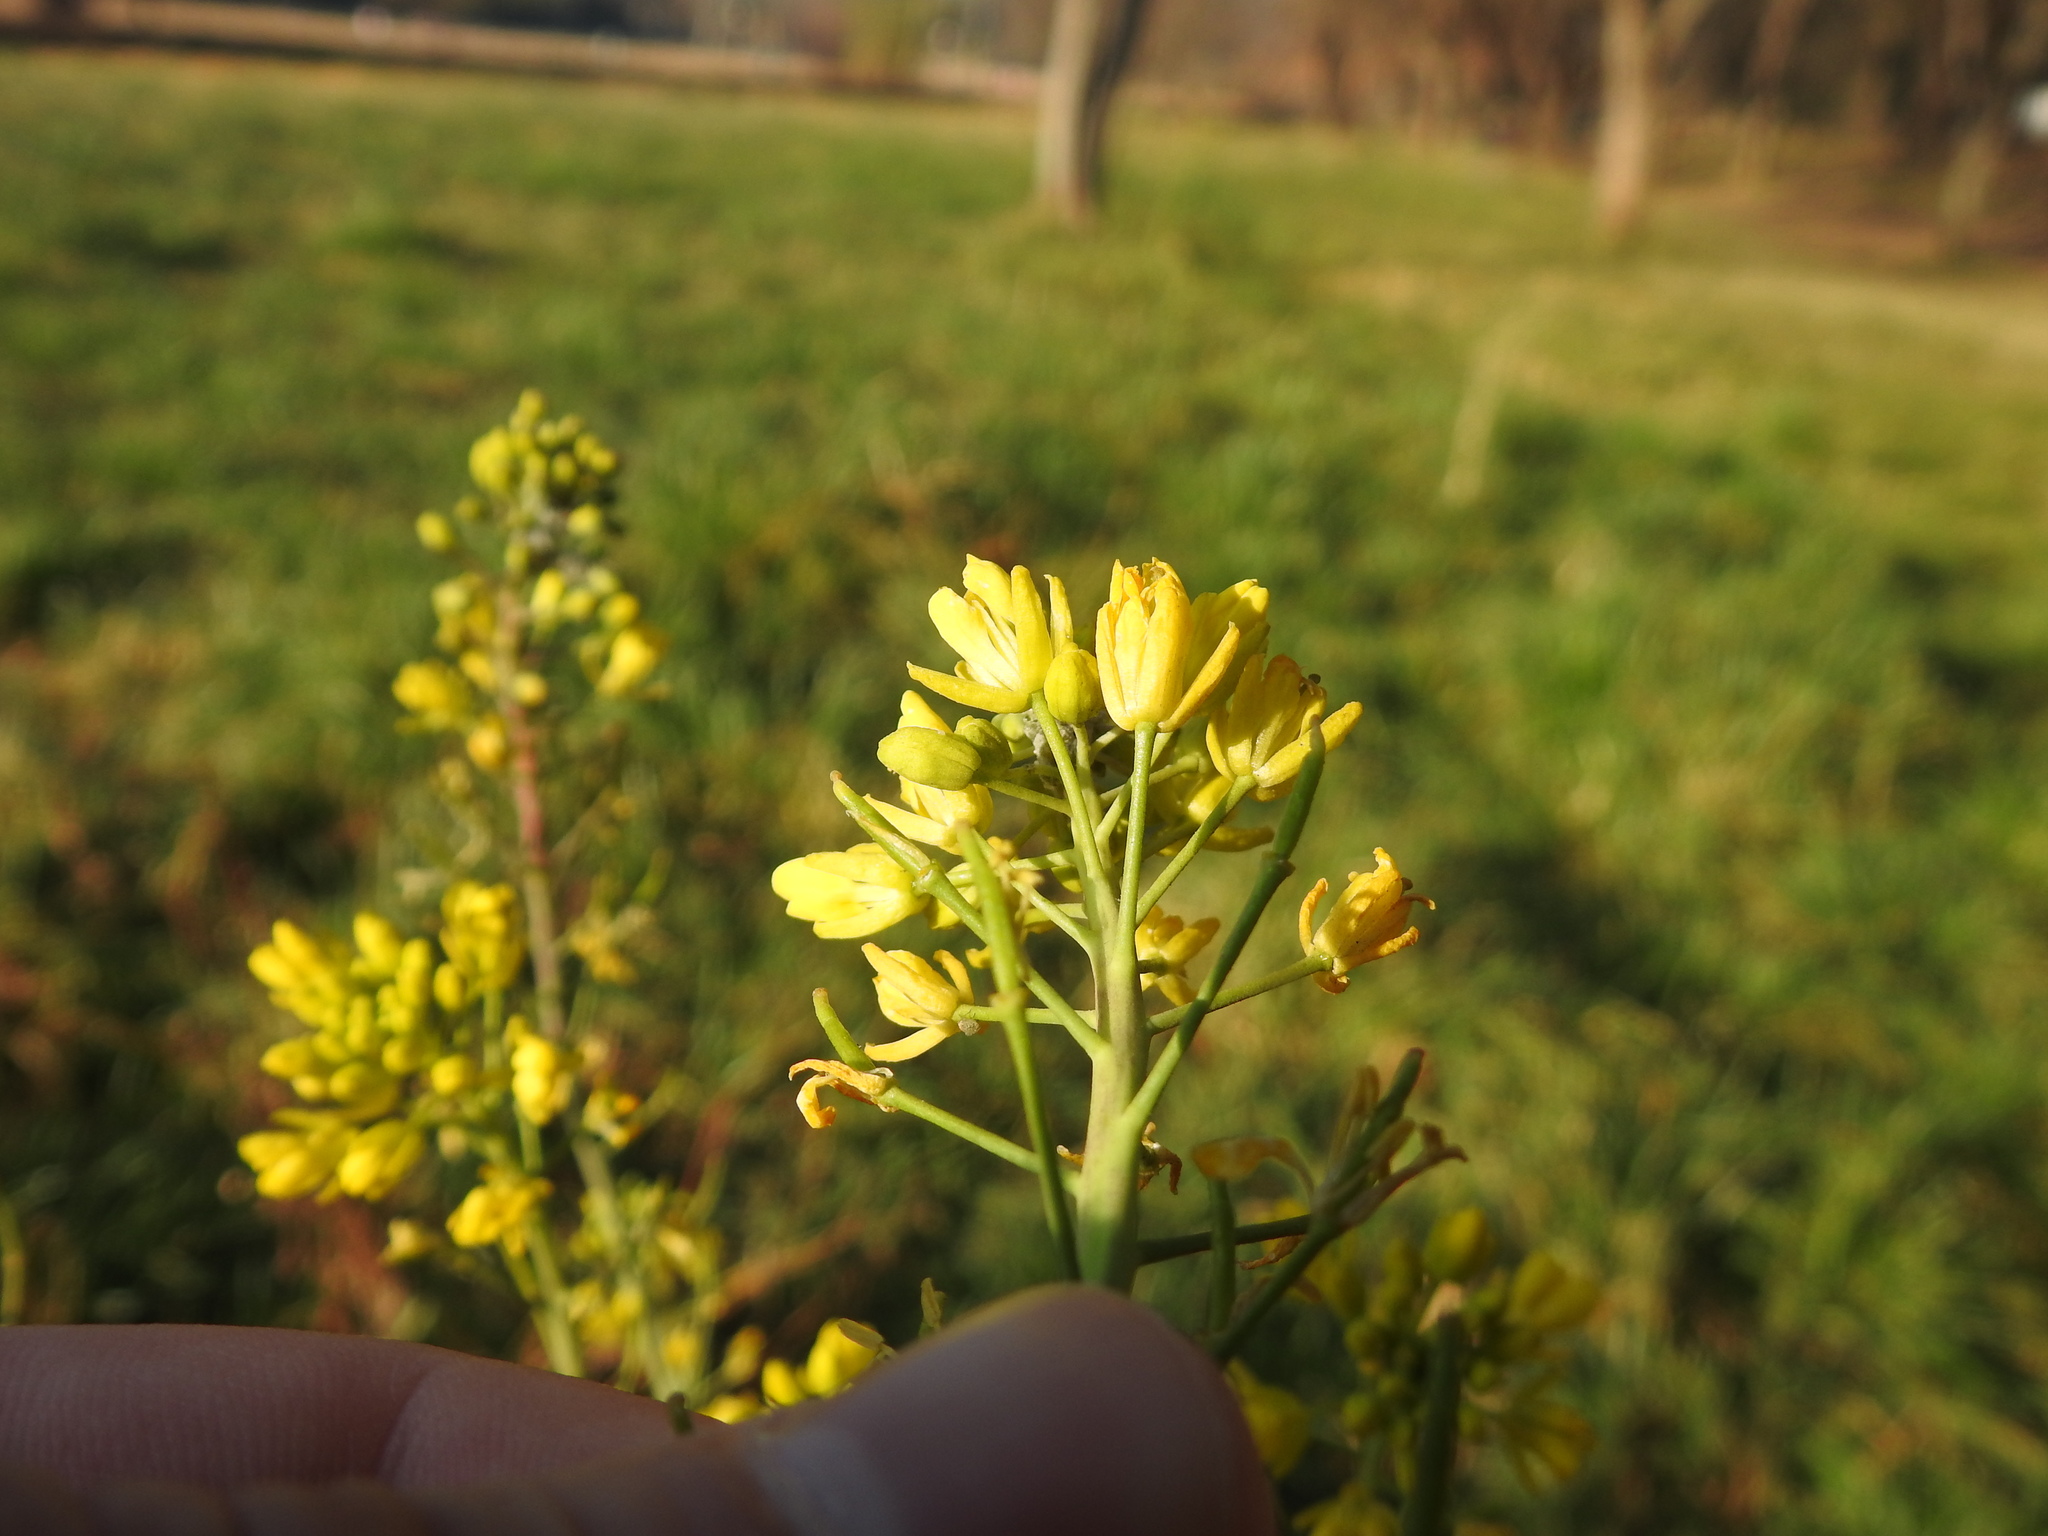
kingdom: Plantae
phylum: Tracheophyta
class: Magnoliopsida
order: Brassicales
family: Brassicaceae
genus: Brassica
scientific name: Brassica juncea
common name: Brown mustard
